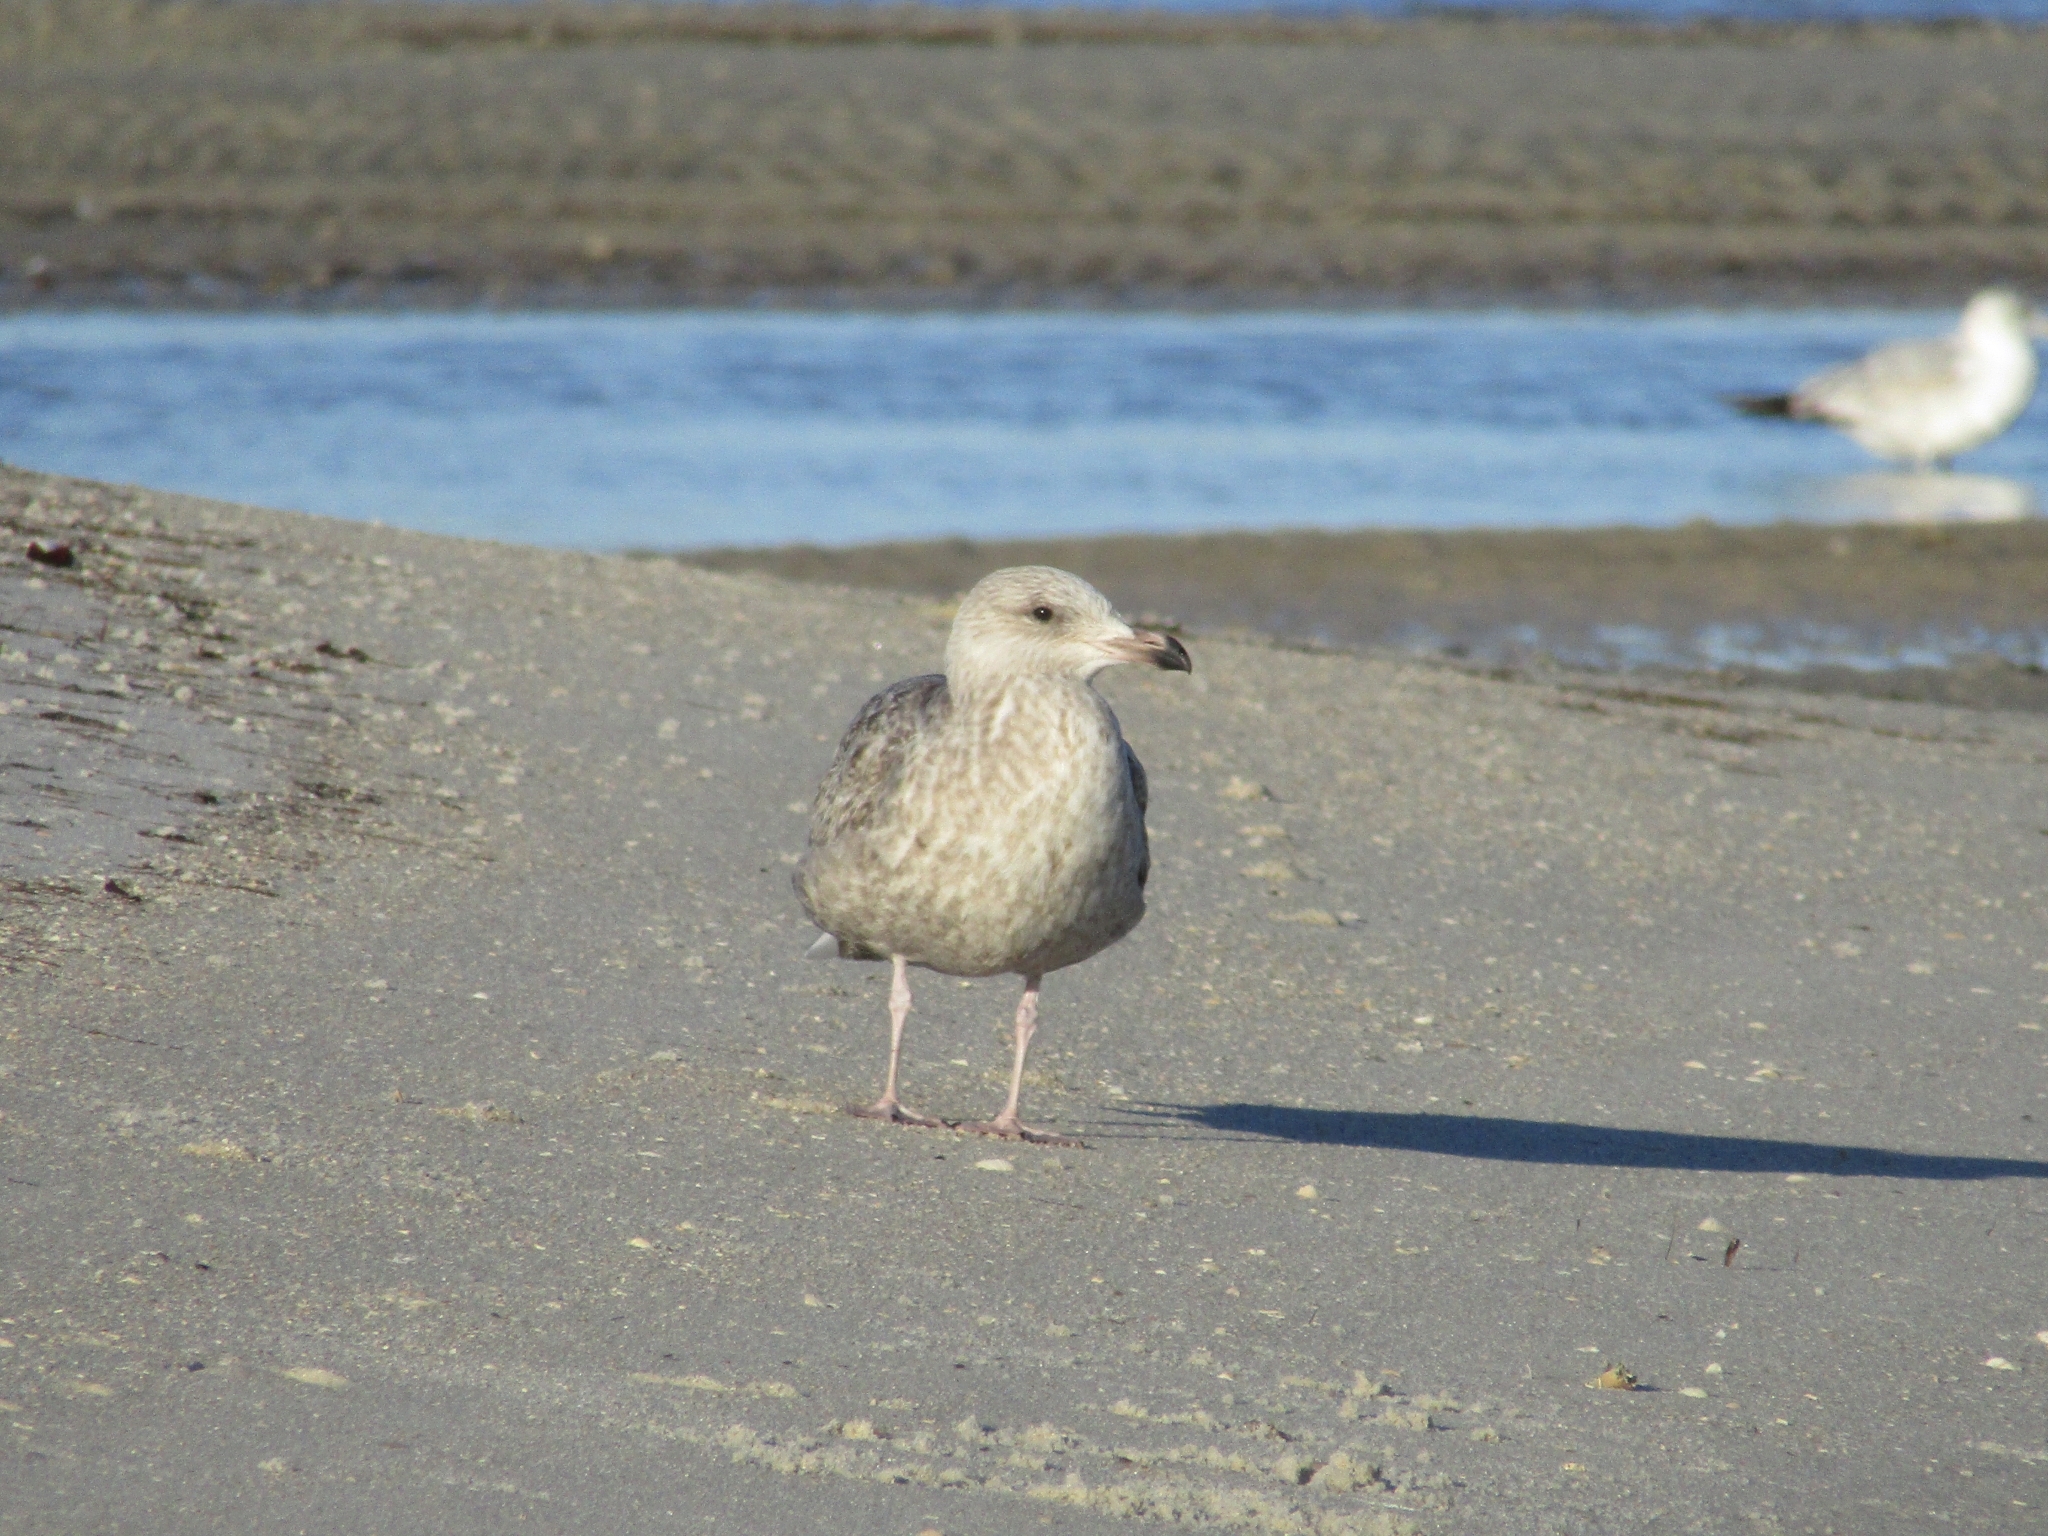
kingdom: Animalia
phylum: Chordata
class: Aves
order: Charadriiformes
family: Laridae
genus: Larus
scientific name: Larus argentatus
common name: Herring gull
